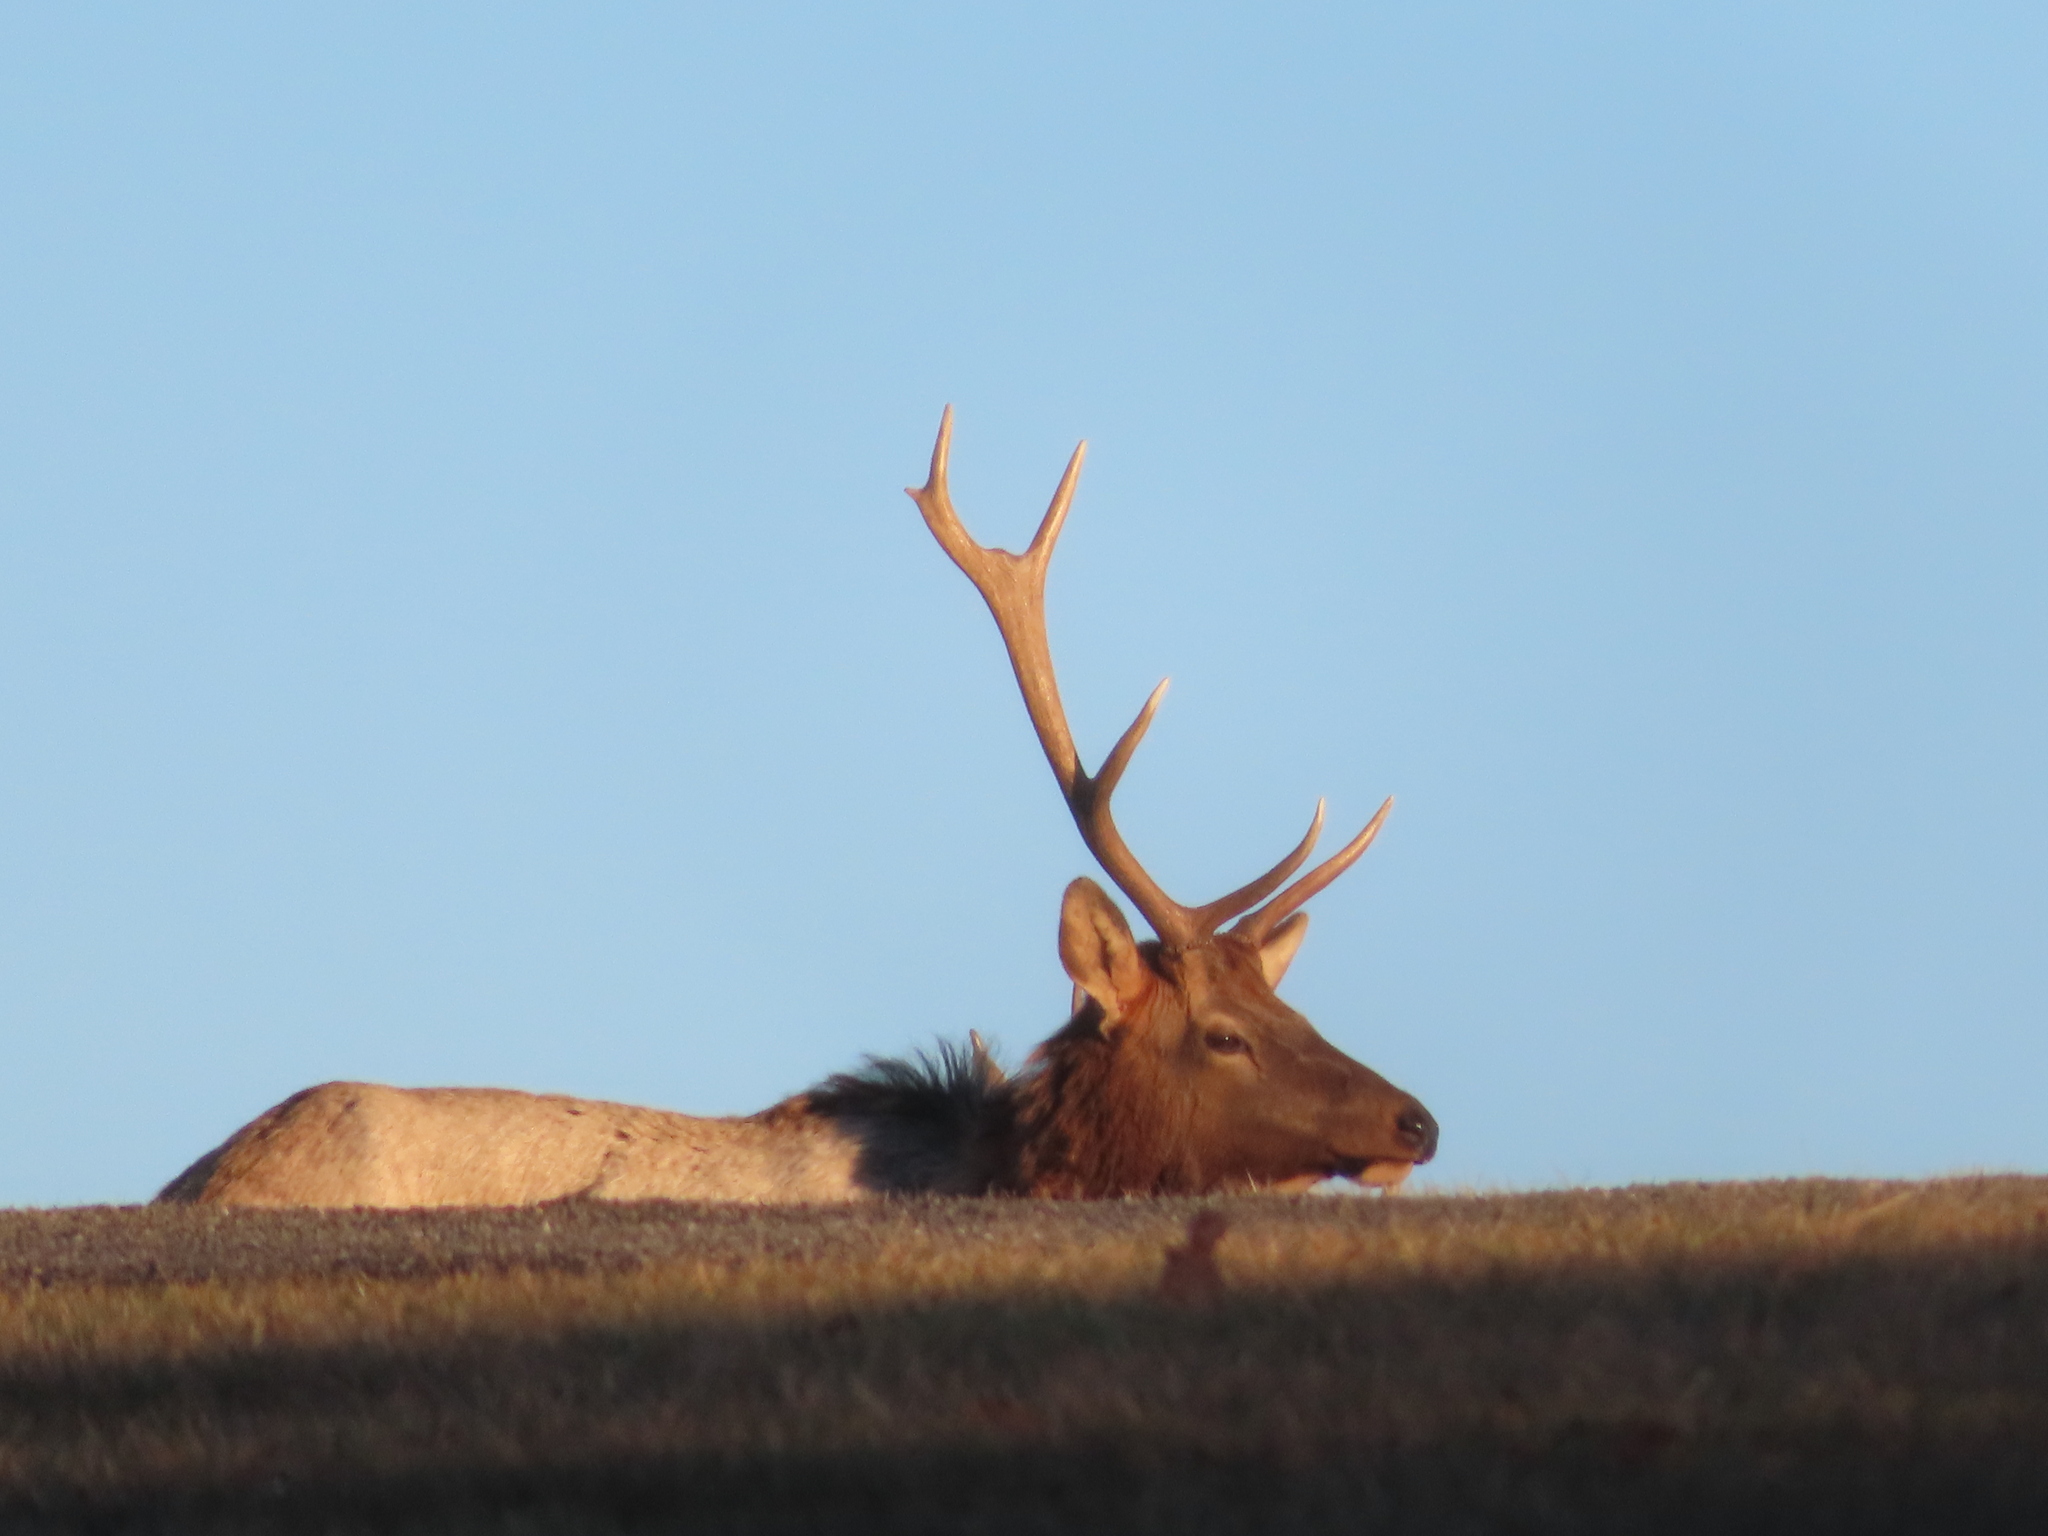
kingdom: Animalia
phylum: Chordata
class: Mammalia
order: Artiodactyla
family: Cervidae
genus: Cervus
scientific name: Cervus elaphus
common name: Red deer
